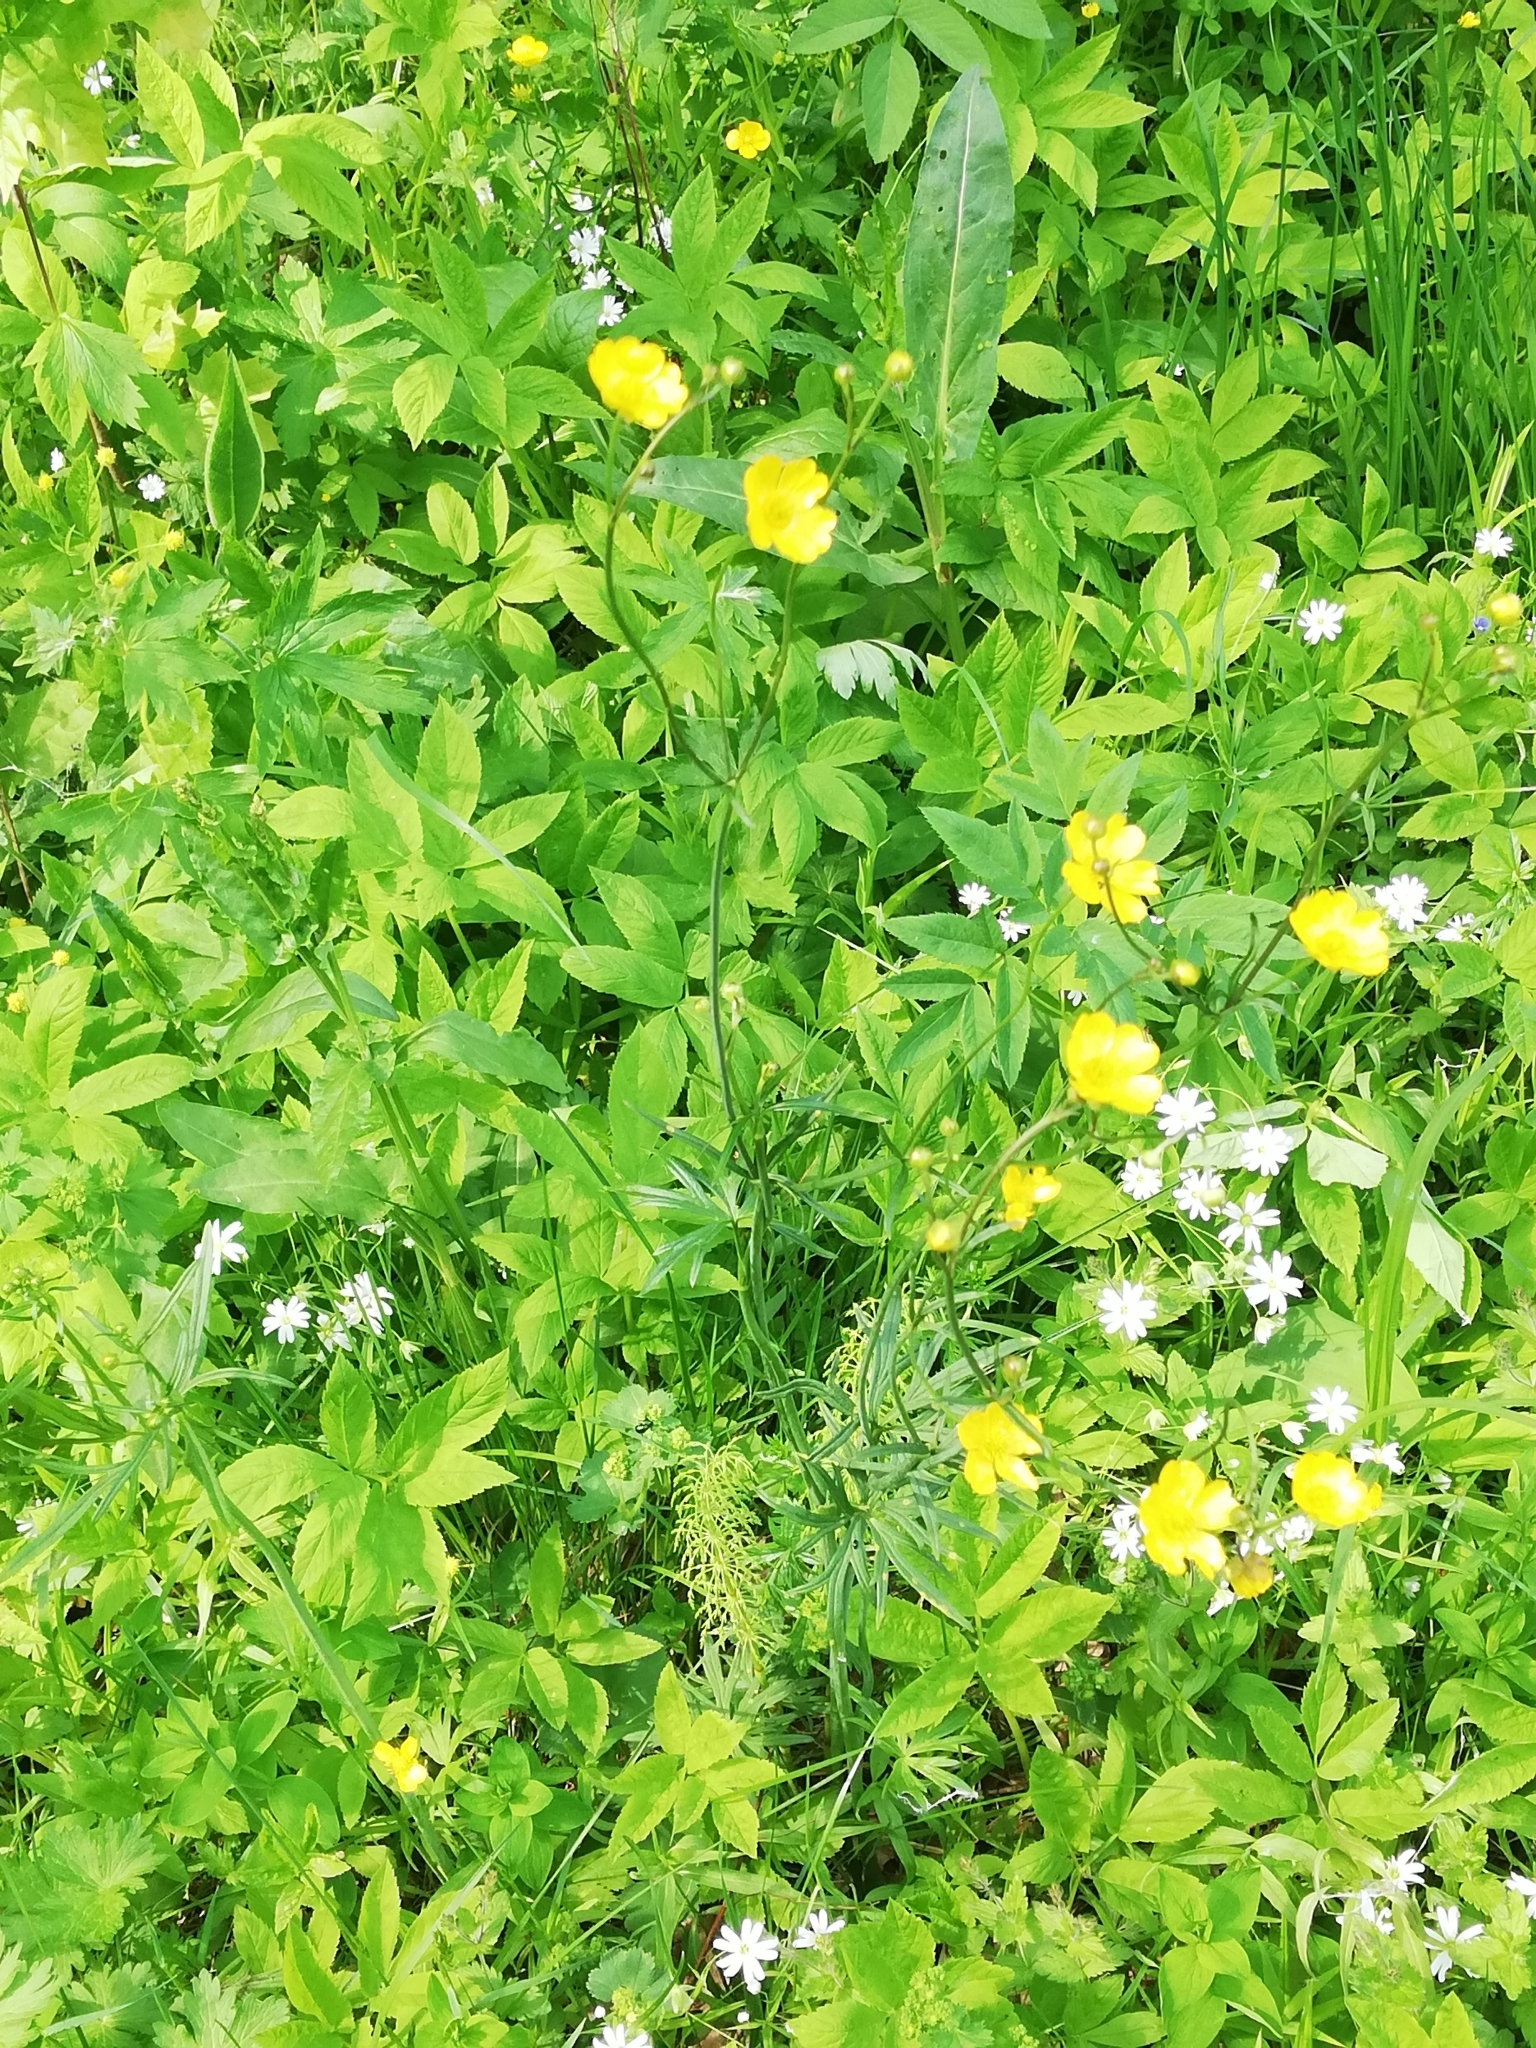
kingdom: Plantae
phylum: Tracheophyta
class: Magnoliopsida
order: Ranunculales
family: Ranunculaceae
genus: Ranunculus
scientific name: Ranunculus acris
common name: Meadow buttercup
